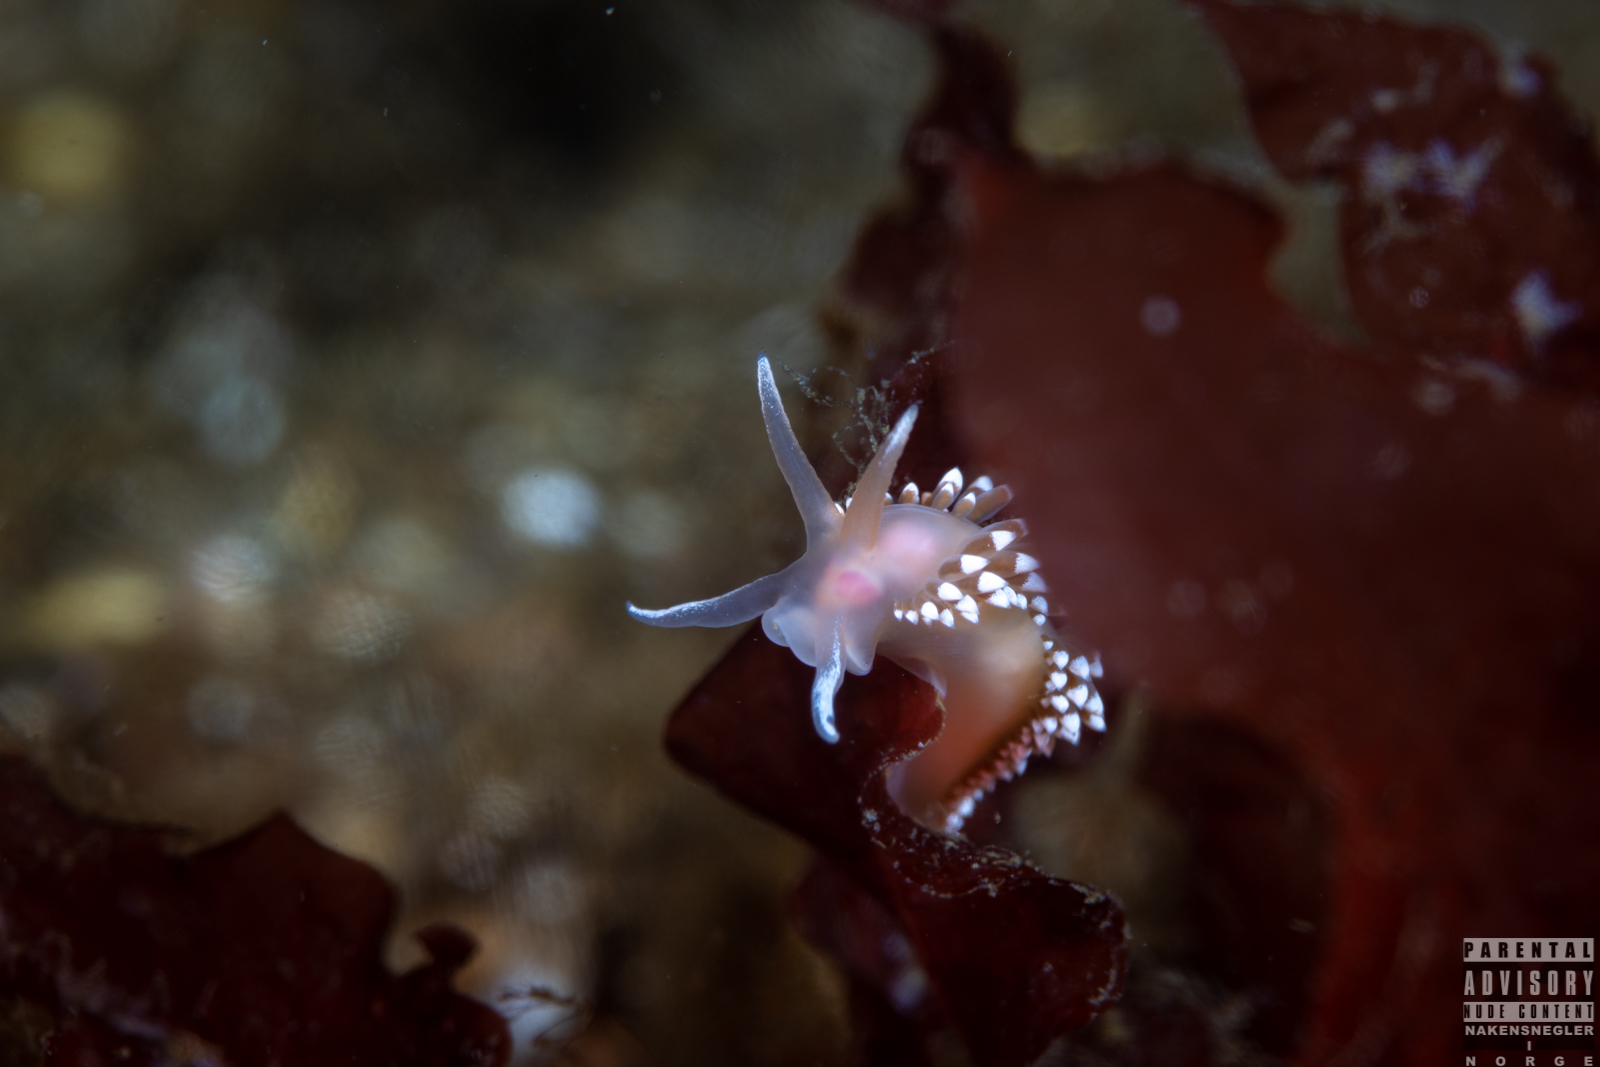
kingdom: Animalia
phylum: Mollusca
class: Gastropoda
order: Nudibranchia
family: Coryphellidae
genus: Coryphella
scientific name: Coryphella verrucosa
